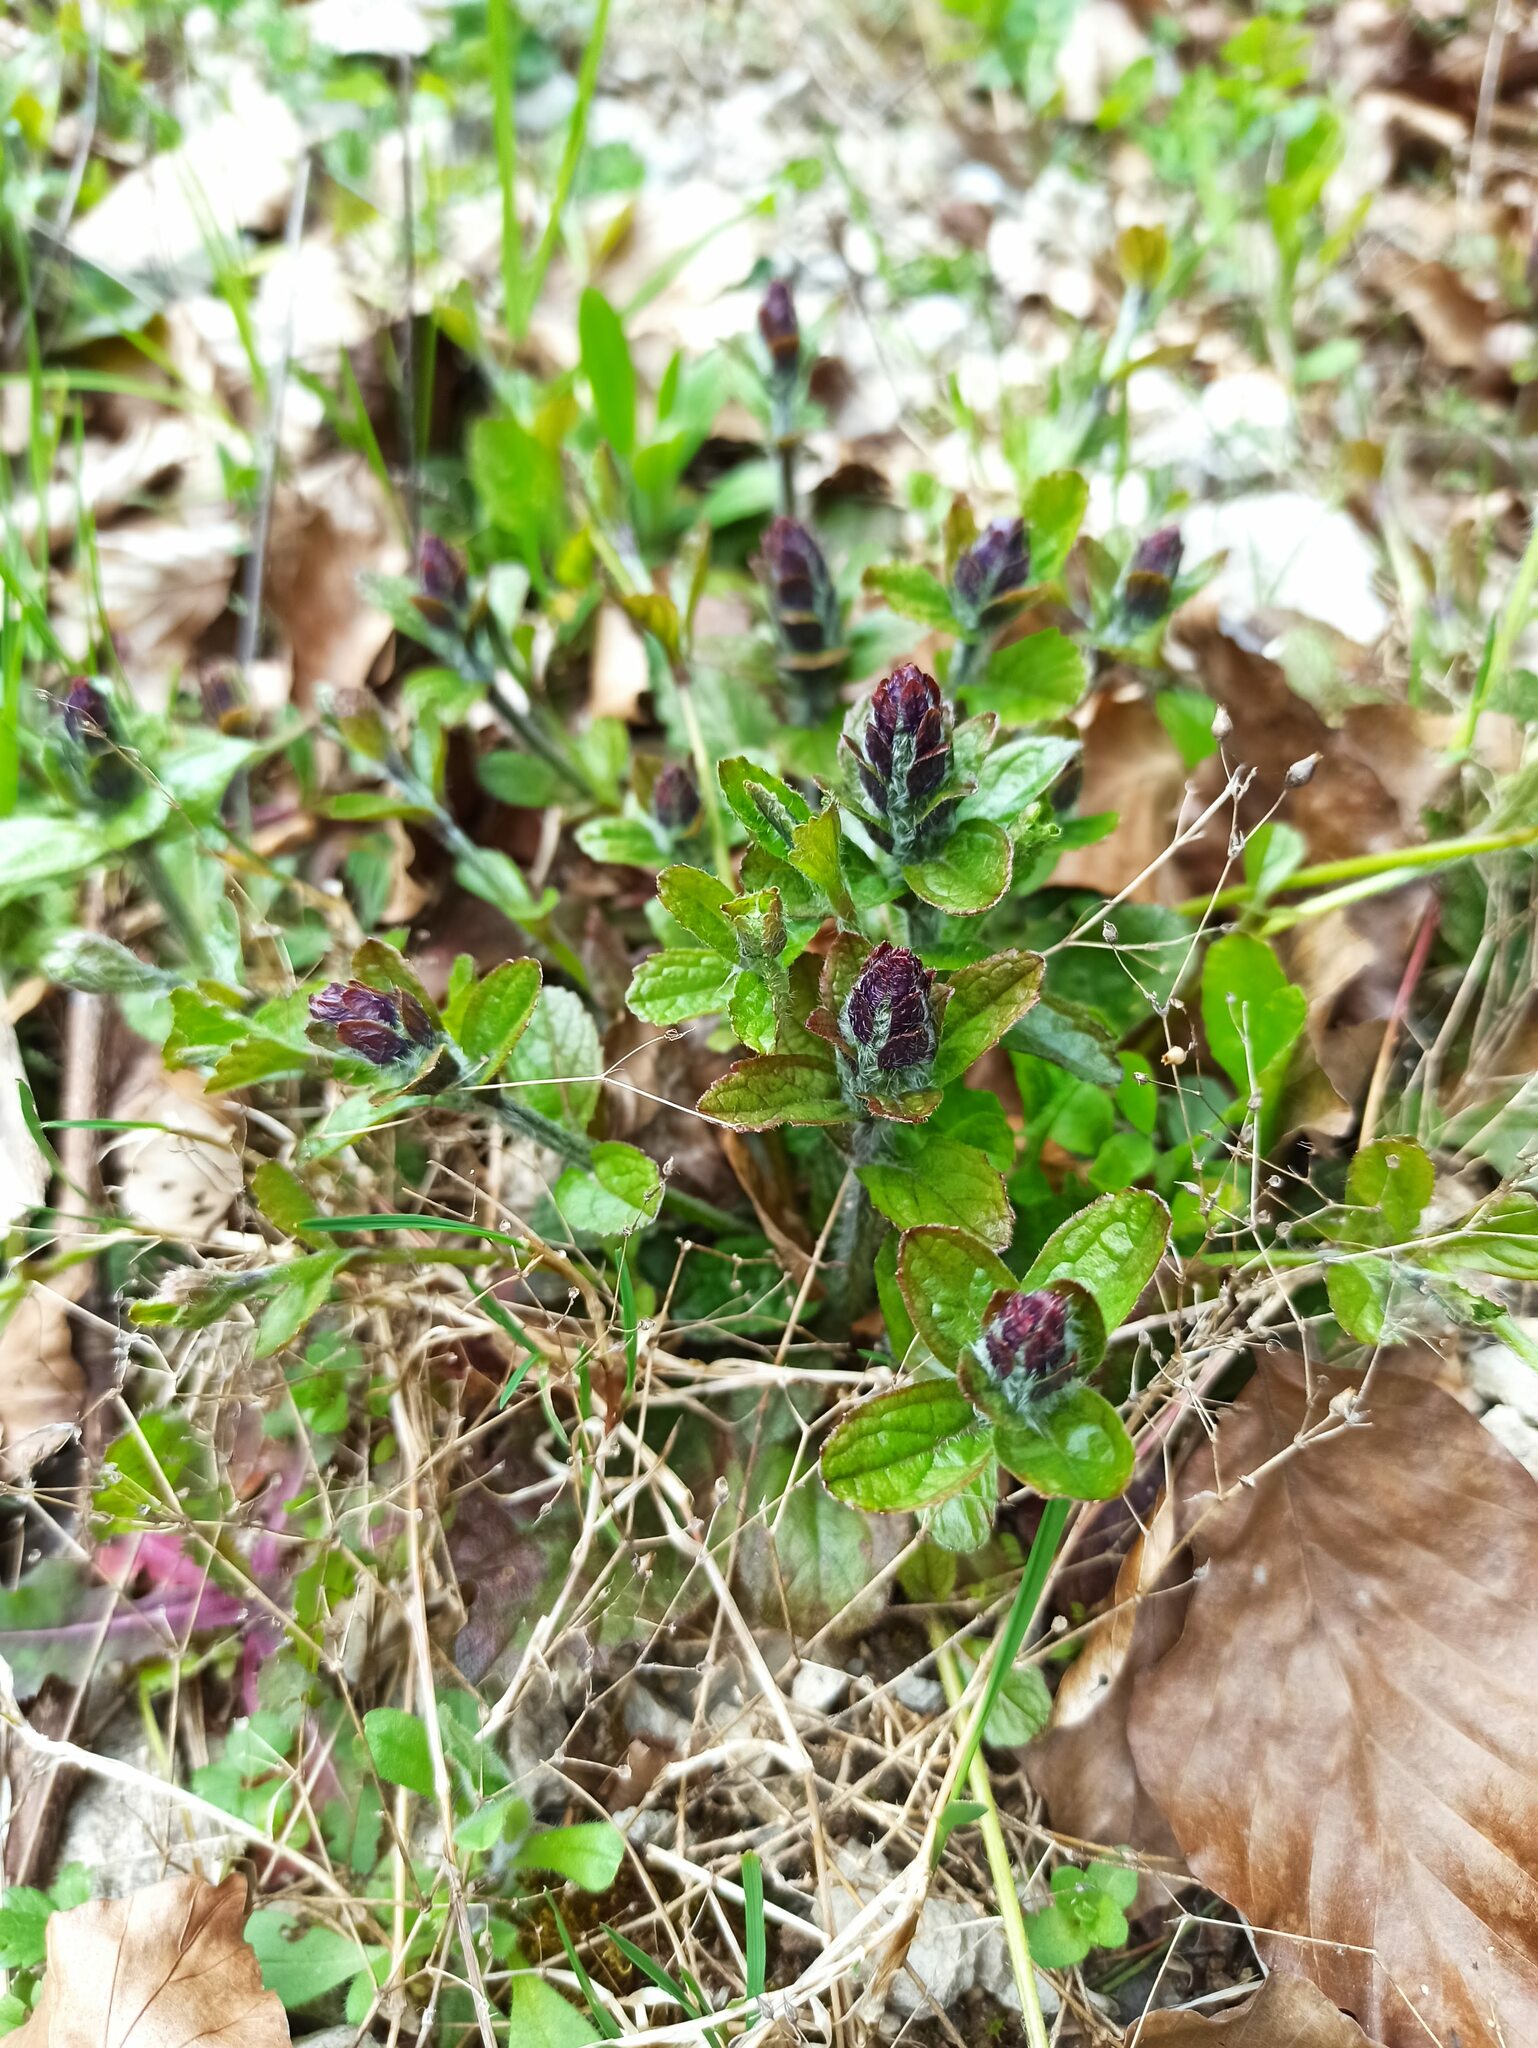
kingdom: Plantae
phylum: Tracheophyta
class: Magnoliopsida
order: Lamiales
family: Lamiaceae
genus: Ajuga
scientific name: Ajuga reptans
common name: Bugle
